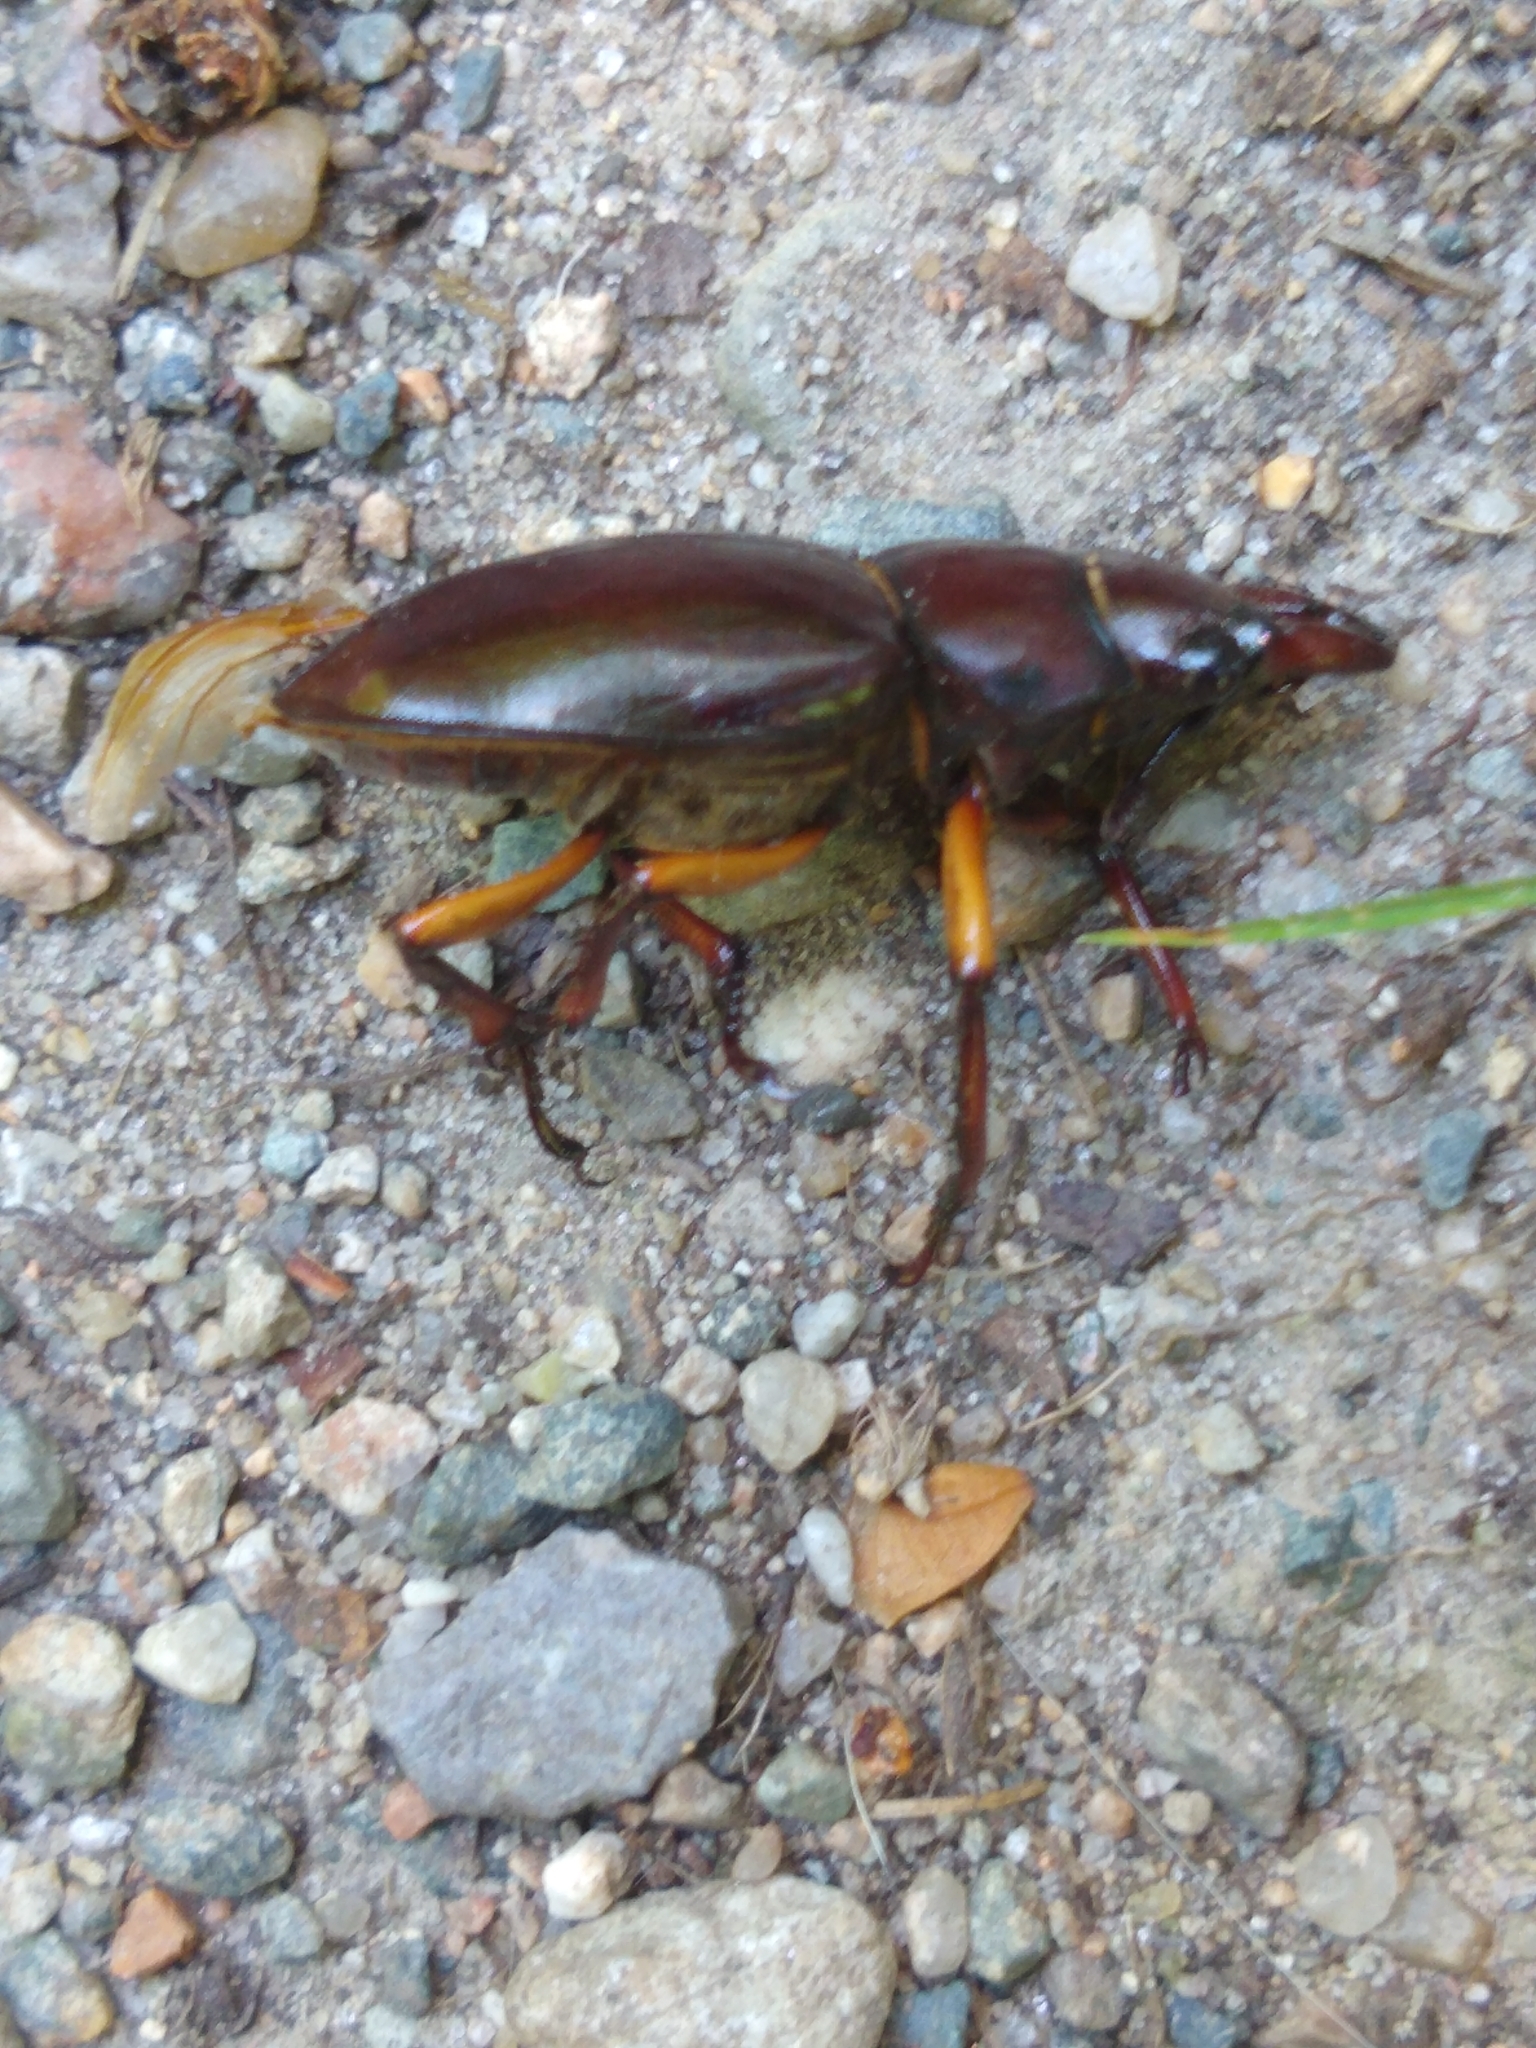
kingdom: Animalia
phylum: Arthropoda
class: Insecta
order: Coleoptera
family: Lucanidae
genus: Lucanus
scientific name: Lucanus capreolus
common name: Stag beetle
